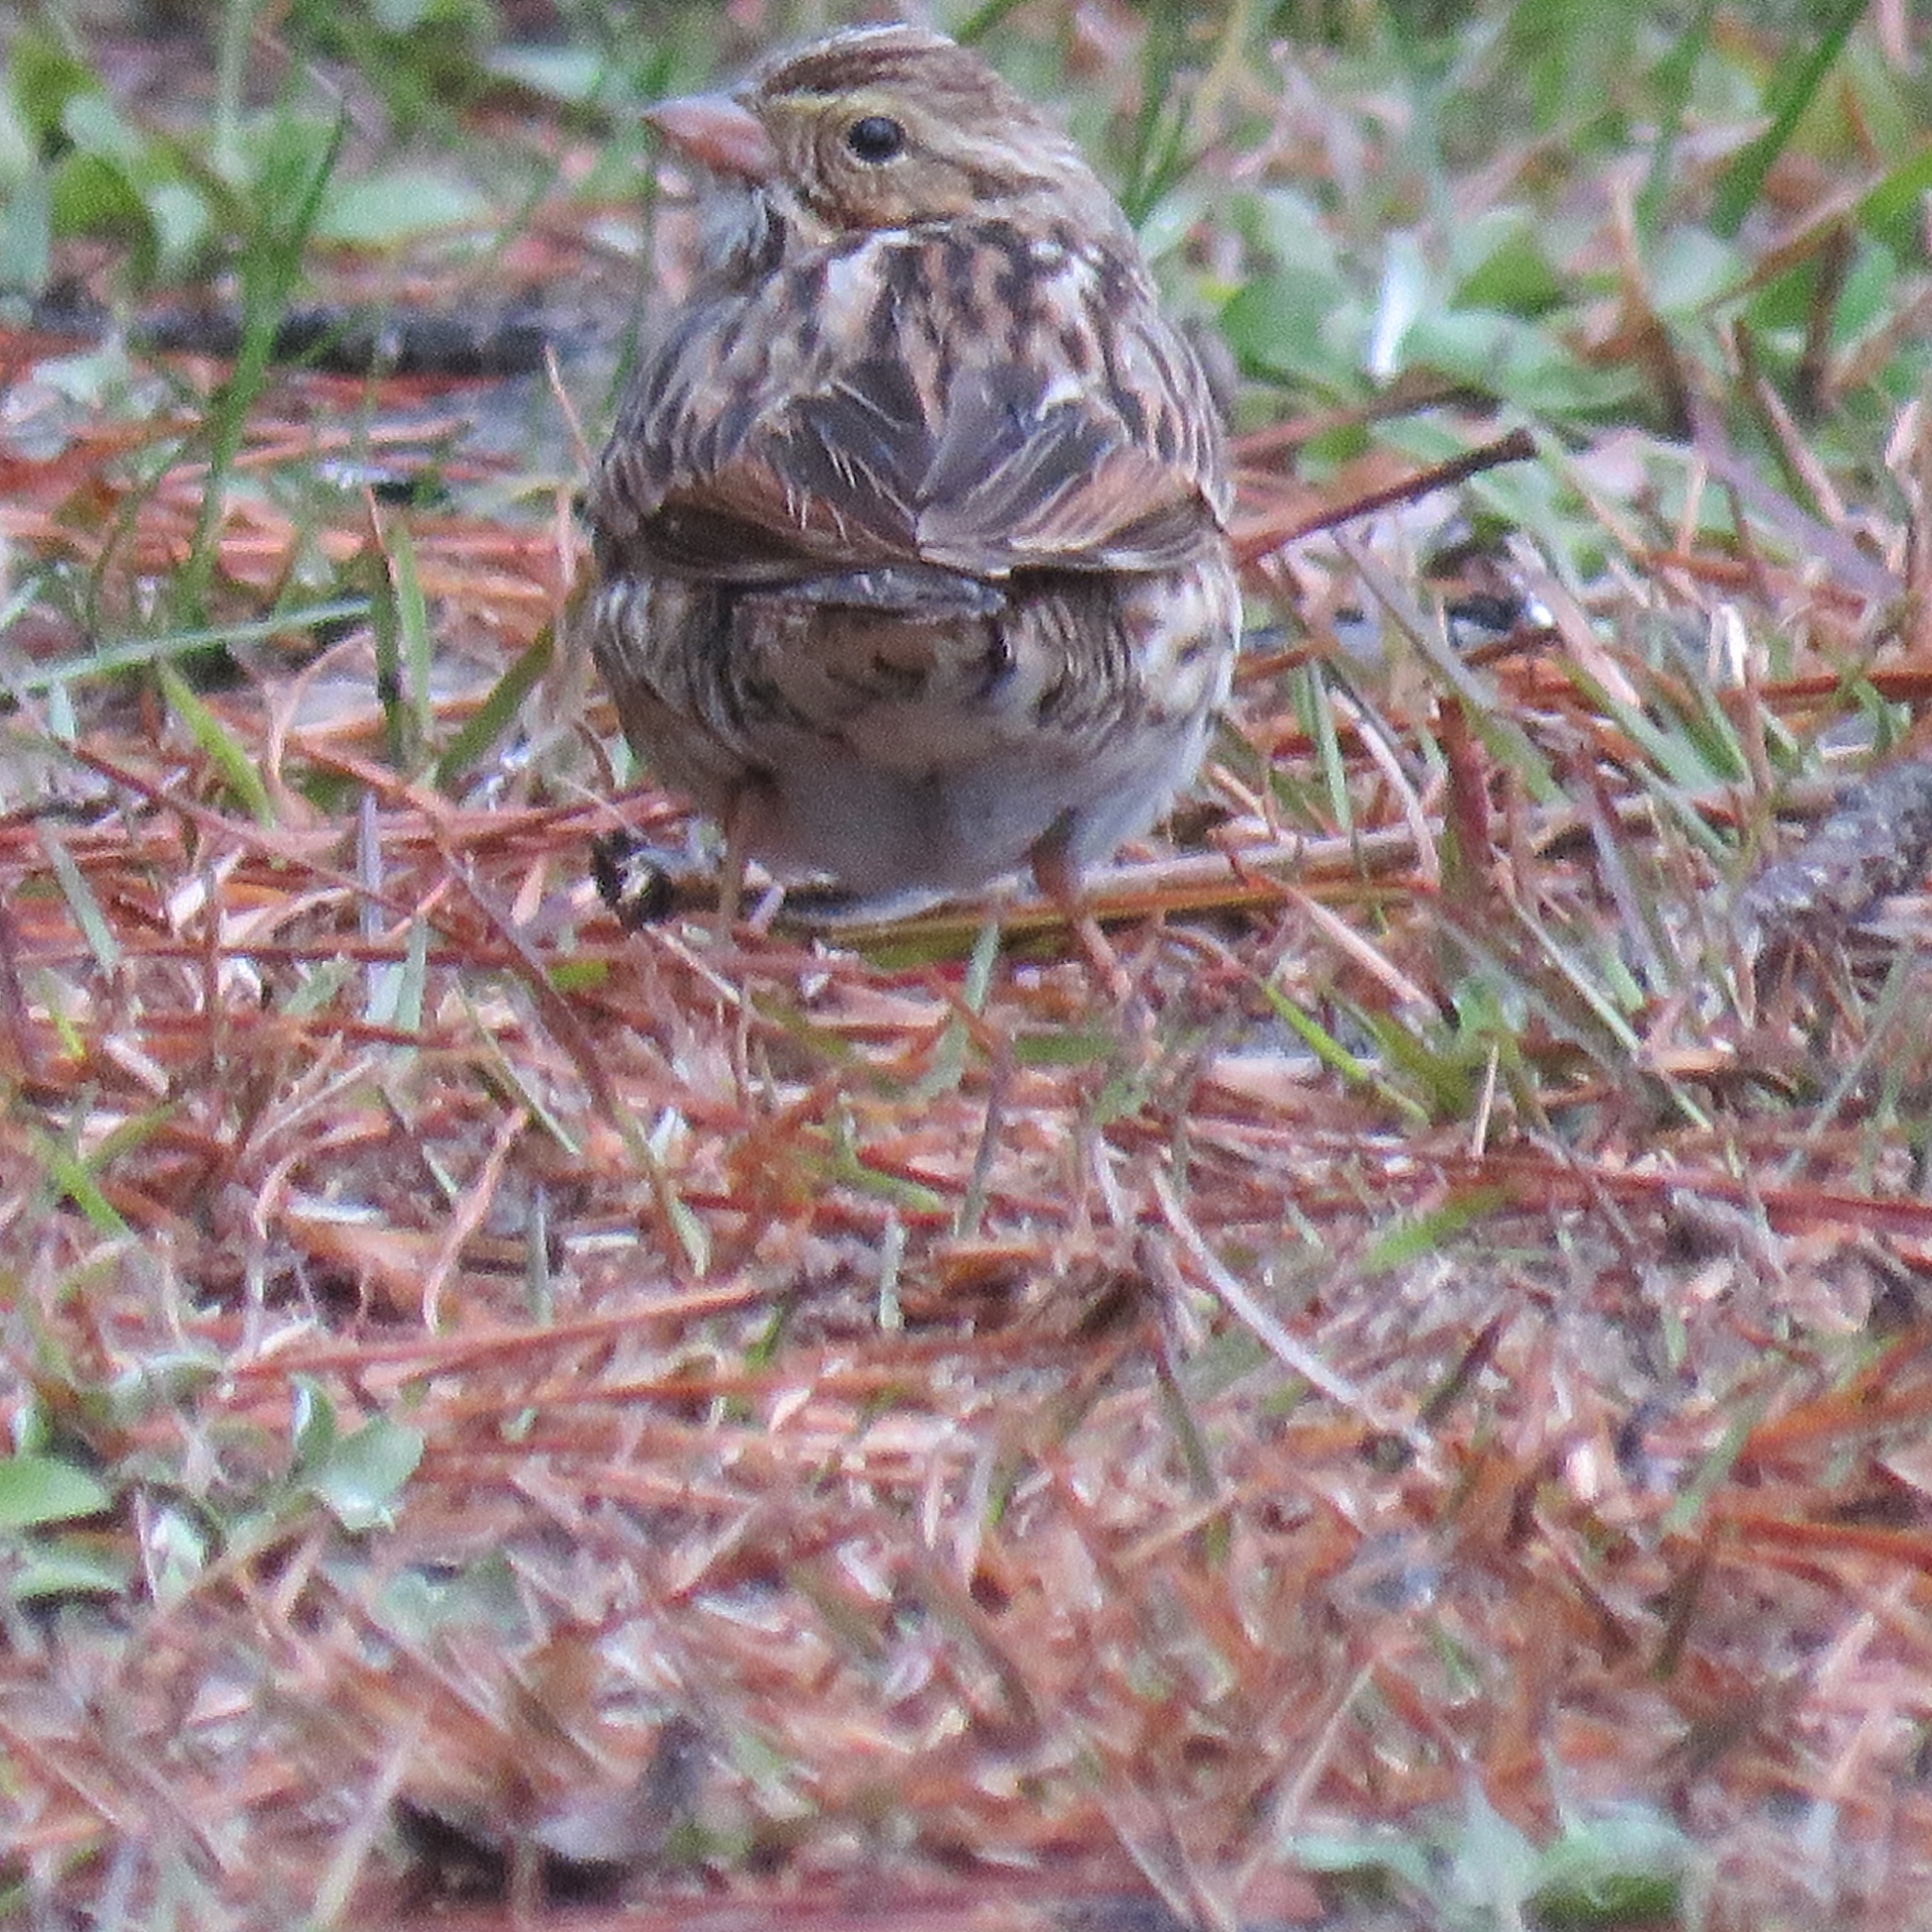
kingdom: Animalia
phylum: Chordata
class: Aves
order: Passeriformes
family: Passerellidae
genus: Passerculus
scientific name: Passerculus sandwichensis
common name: Savannah sparrow
